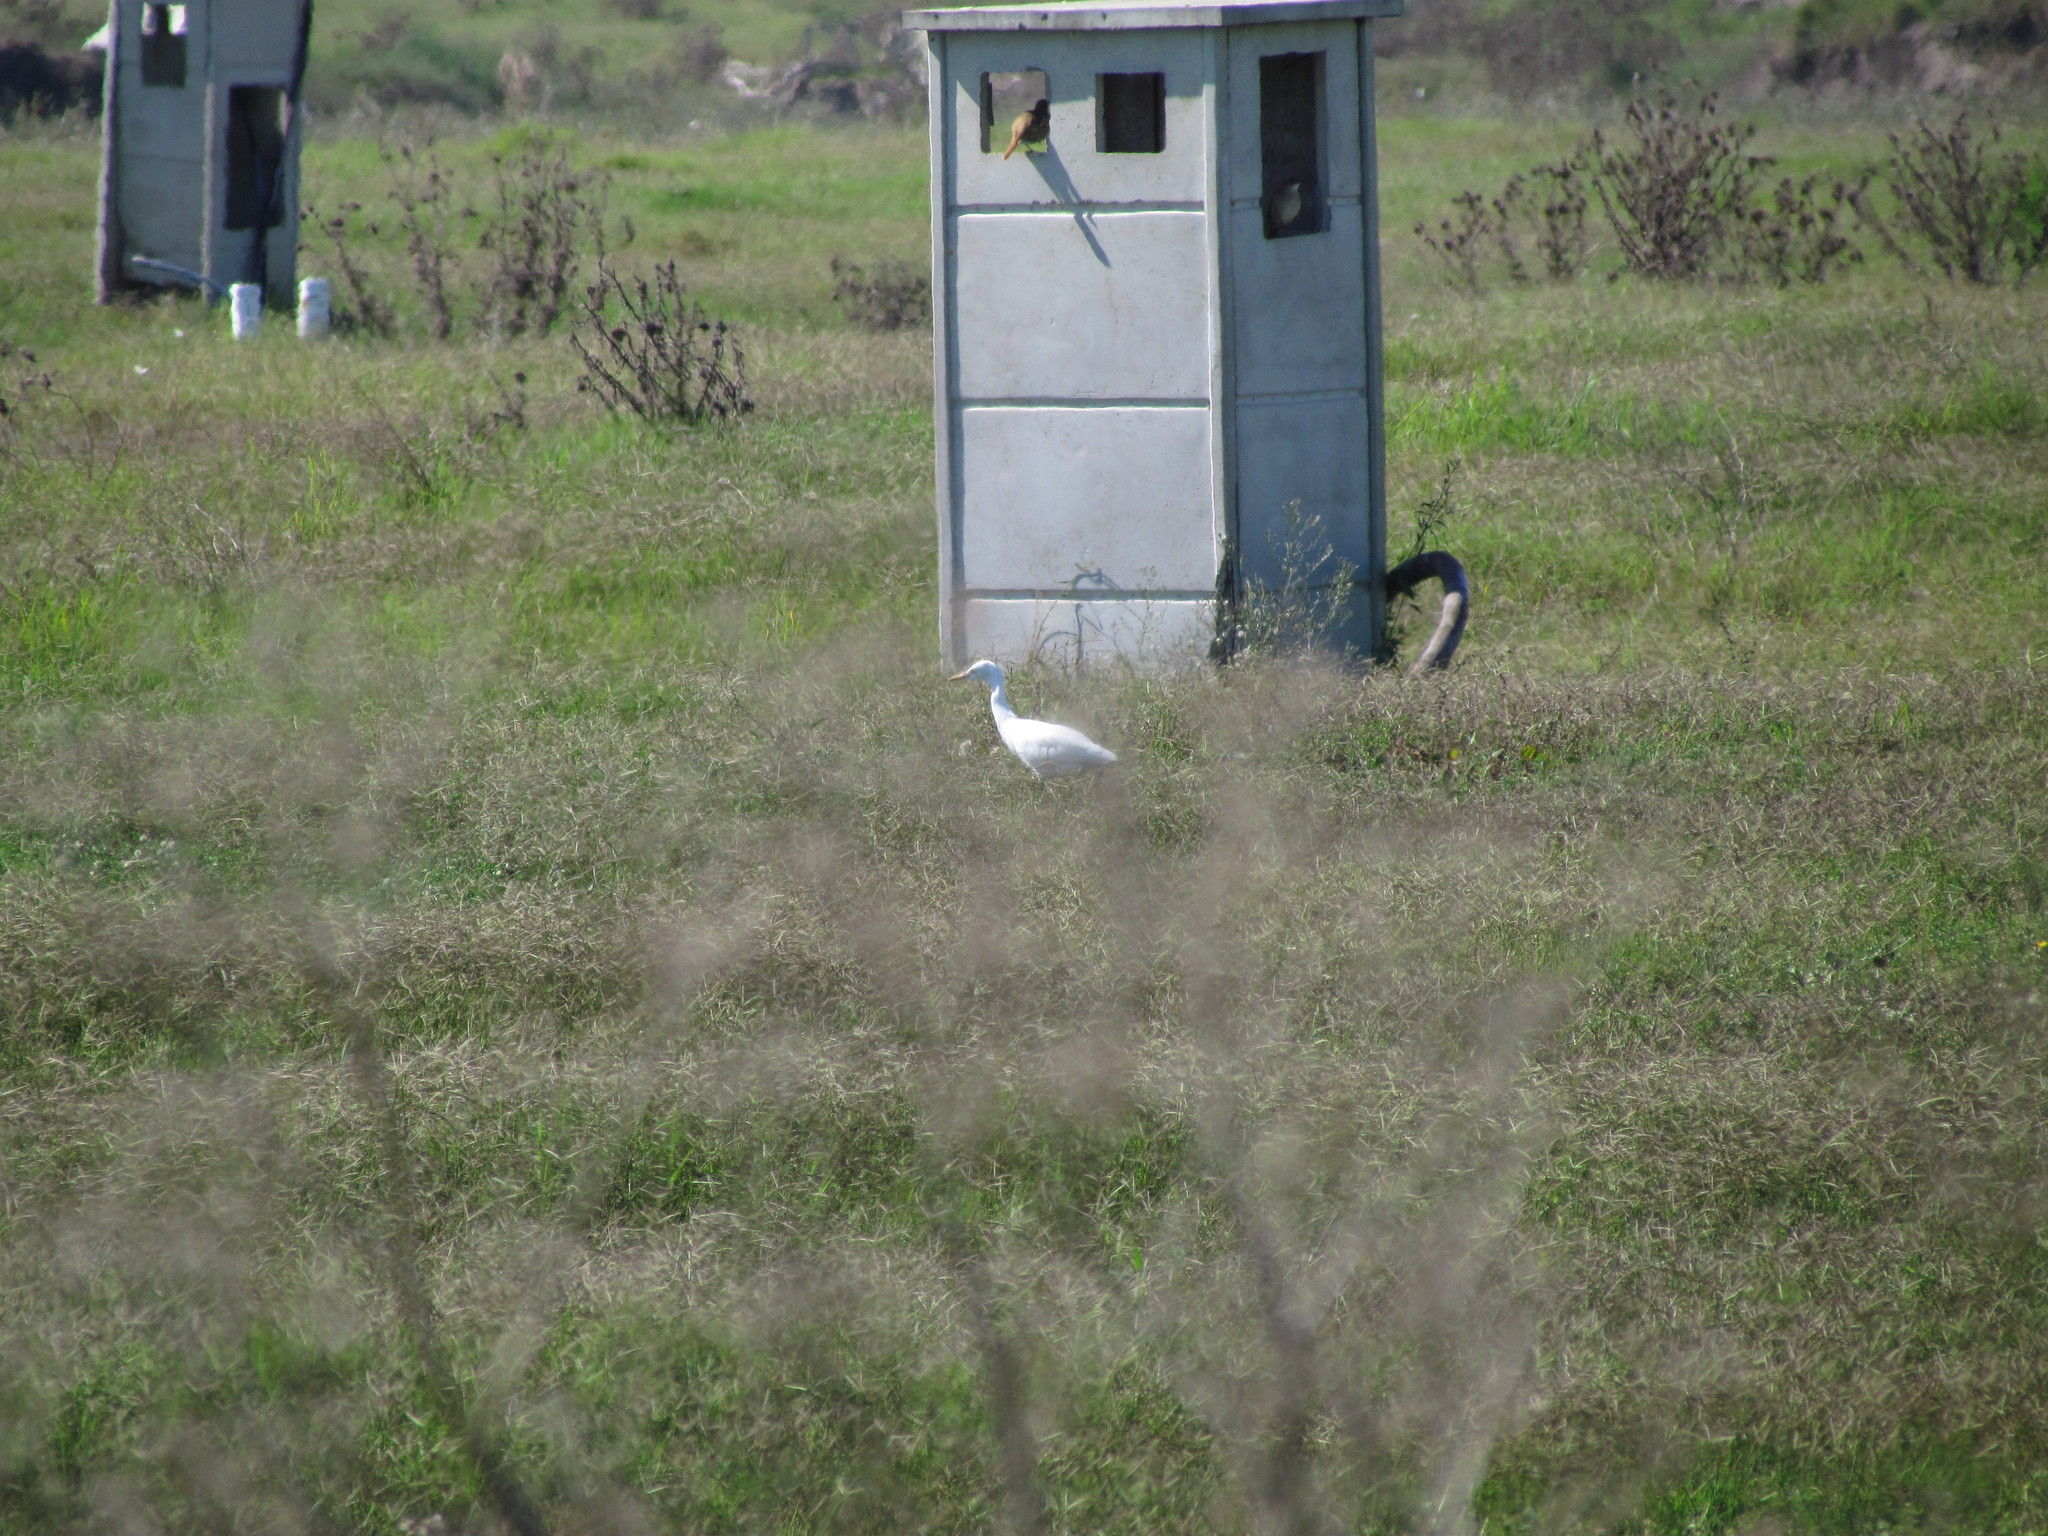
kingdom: Animalia
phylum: Chordata
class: Aves
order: Pelecaniformes
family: Ardeidae
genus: Bubulcus
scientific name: Bubulcus ibis
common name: Cattle egret
